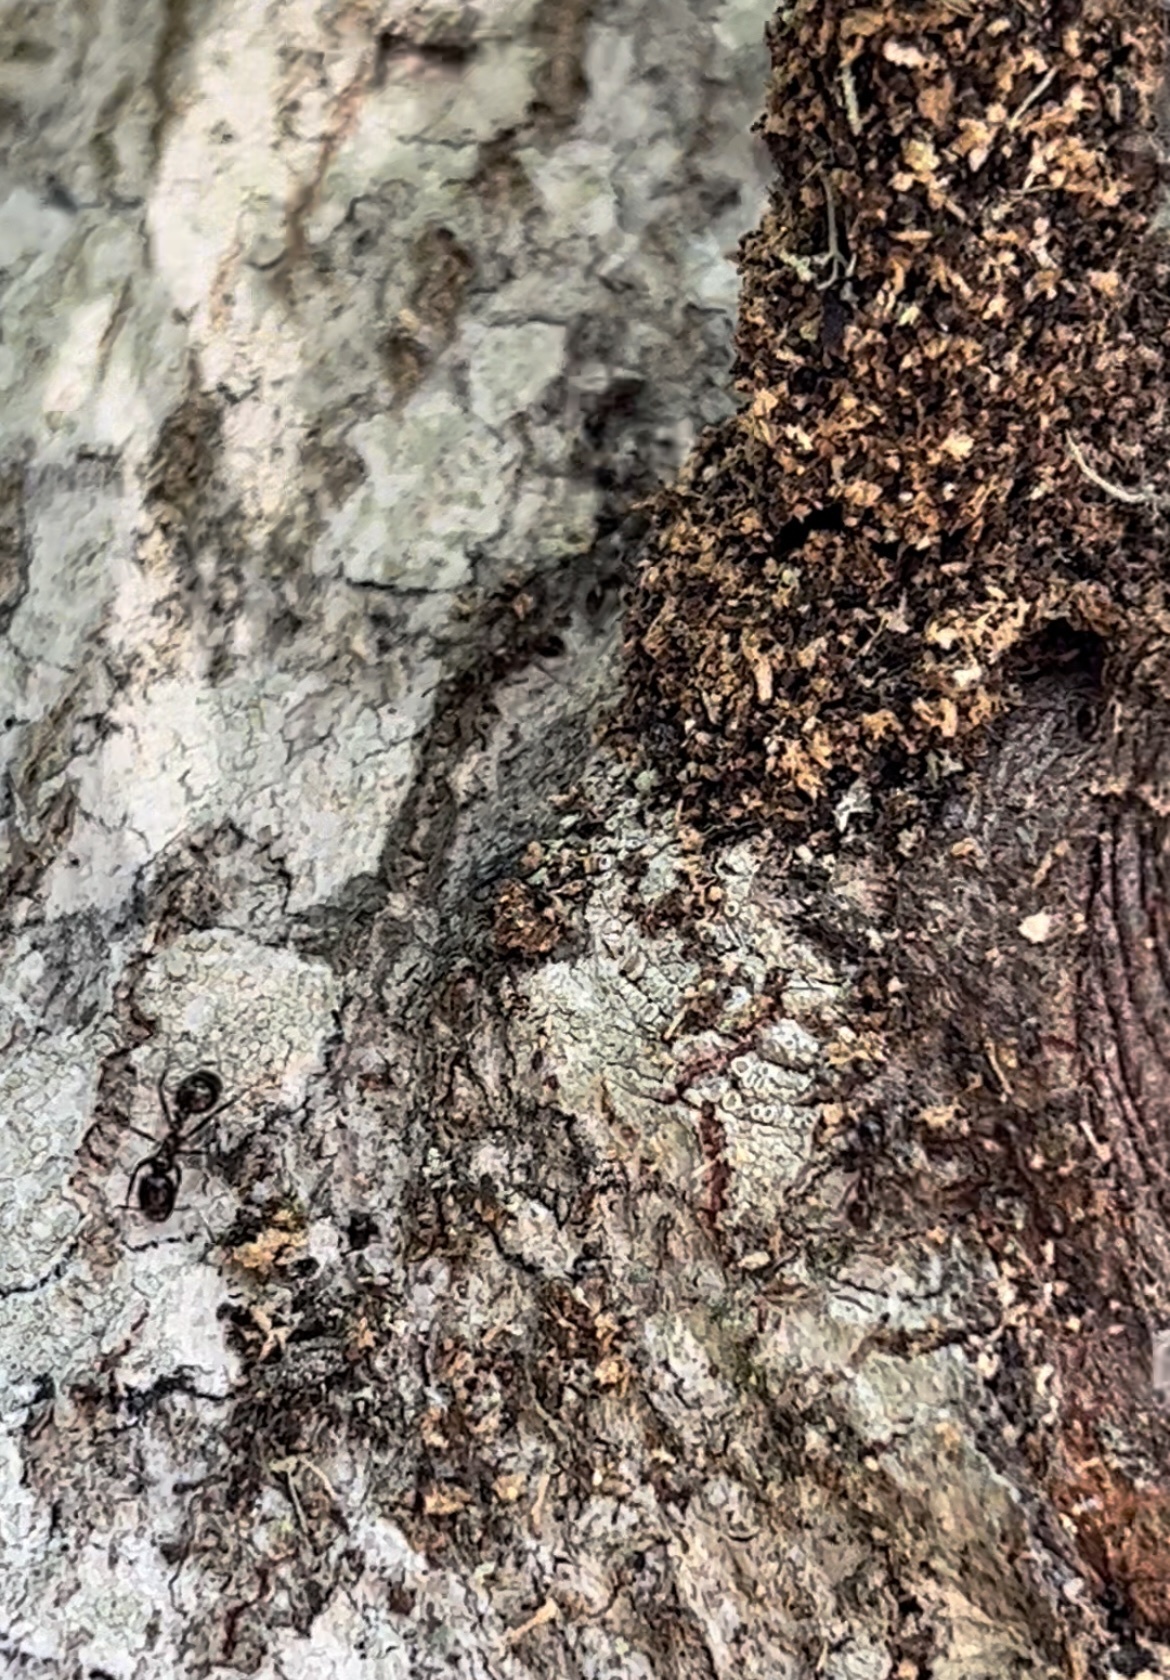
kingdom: Animalia
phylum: Arthropoda
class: Insecta
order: Hymenoptera
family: Formicidae
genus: Solenopsis
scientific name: Solenopsis
